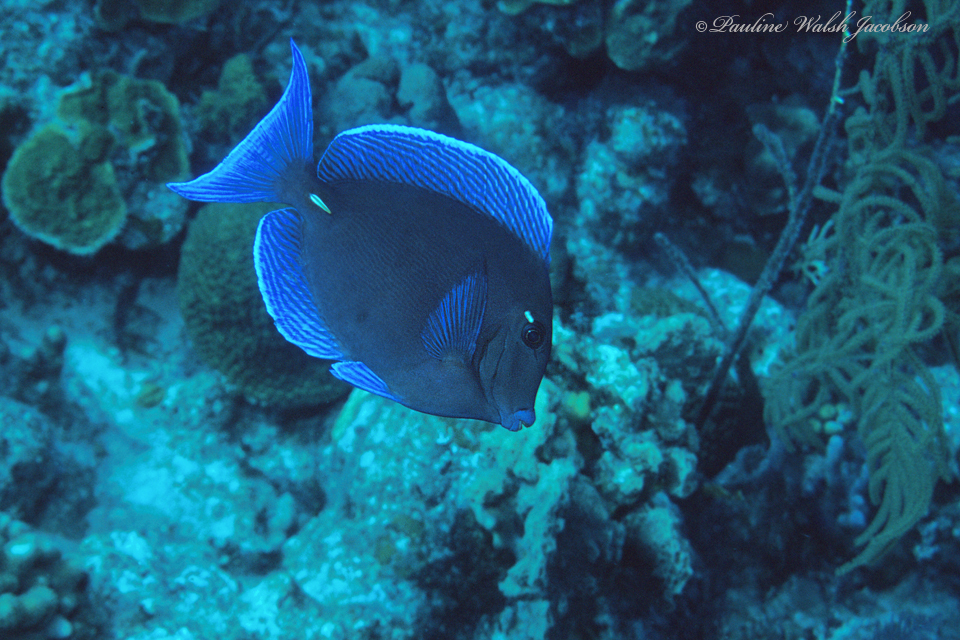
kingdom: Animalia
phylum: Chordata
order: Perciformes
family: Acanthuridae
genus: Acanthurus
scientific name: Acanthurus coeruleus
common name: Blue tang
